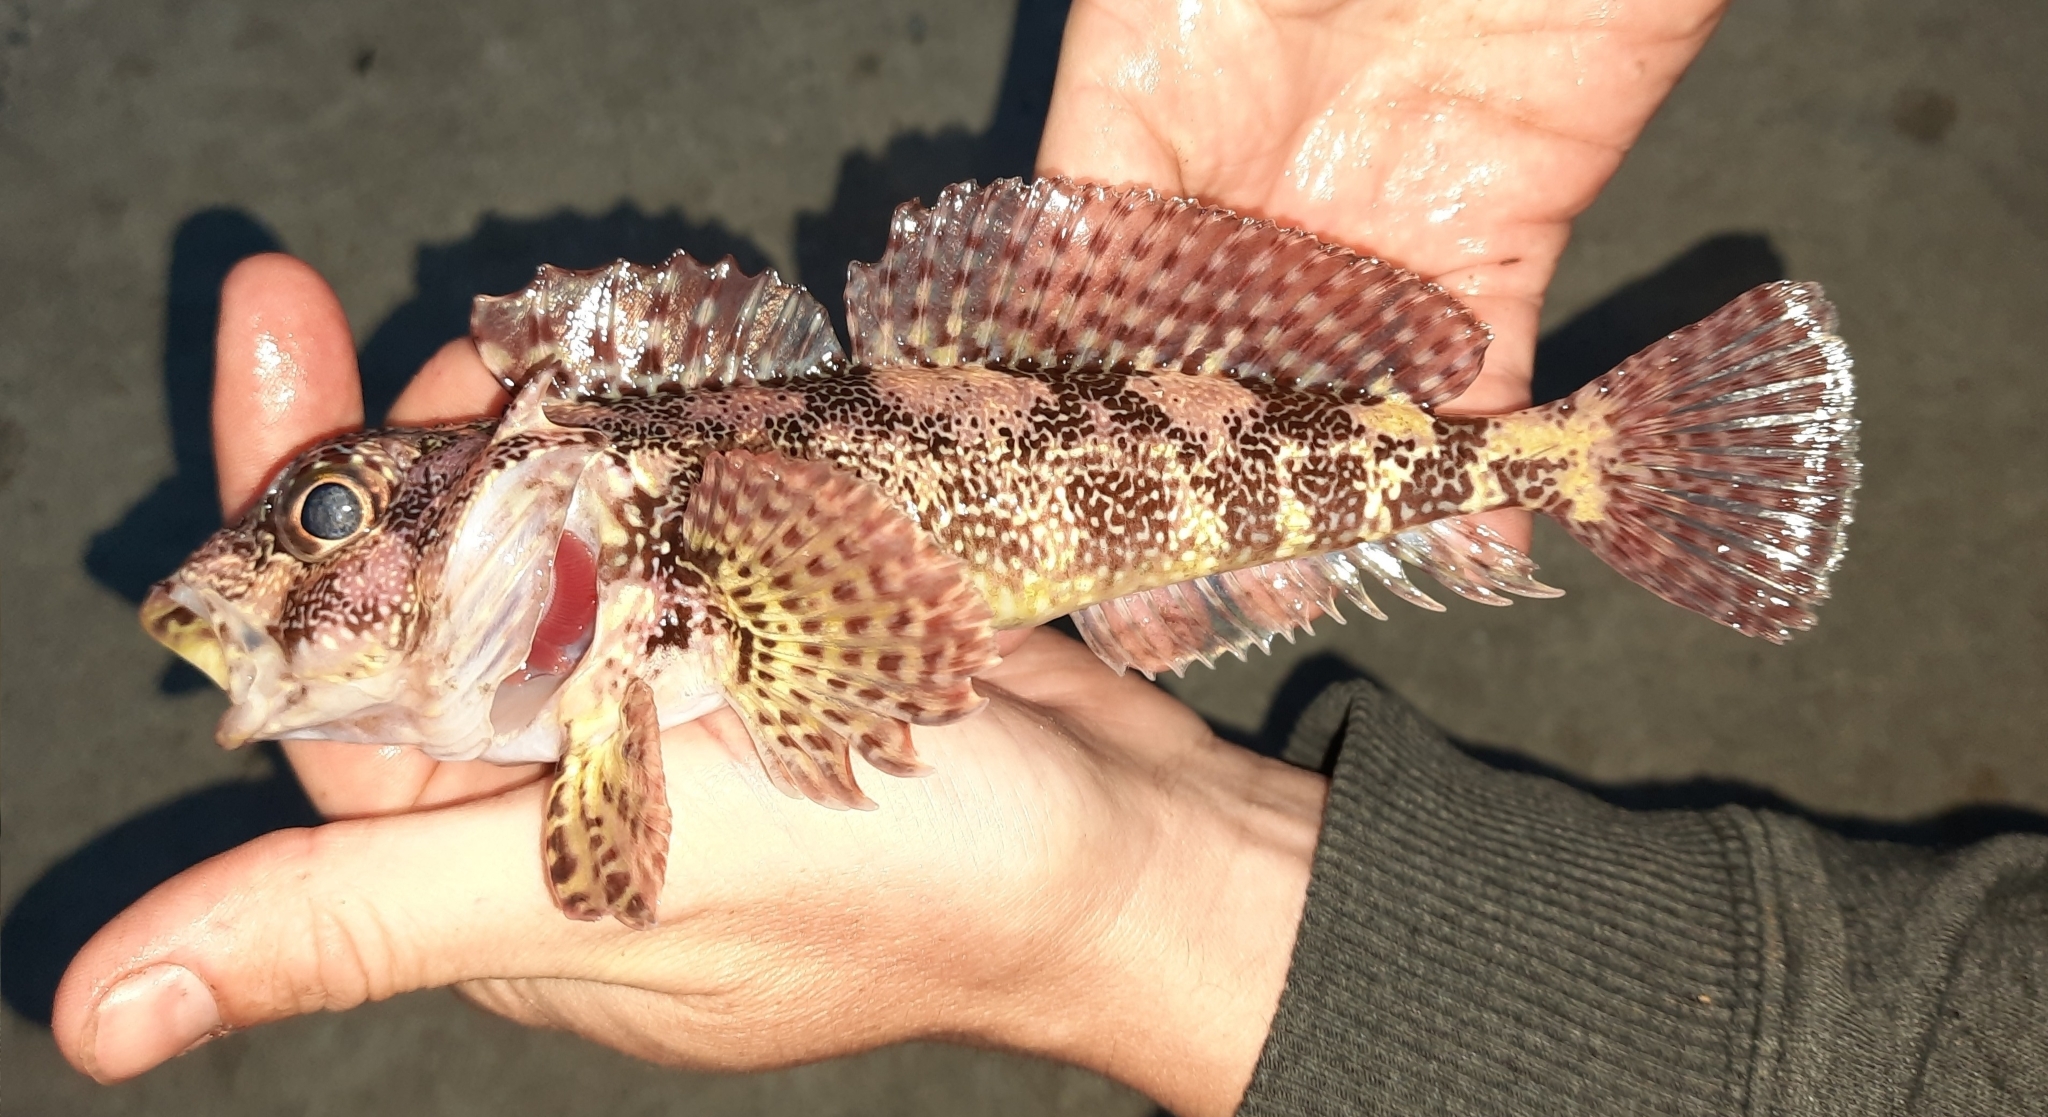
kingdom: Animalia
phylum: Chordata
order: Perciformes
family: Bovichtidae
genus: Bovichtus
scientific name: Bovichtus variegatus
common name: Thornfish
